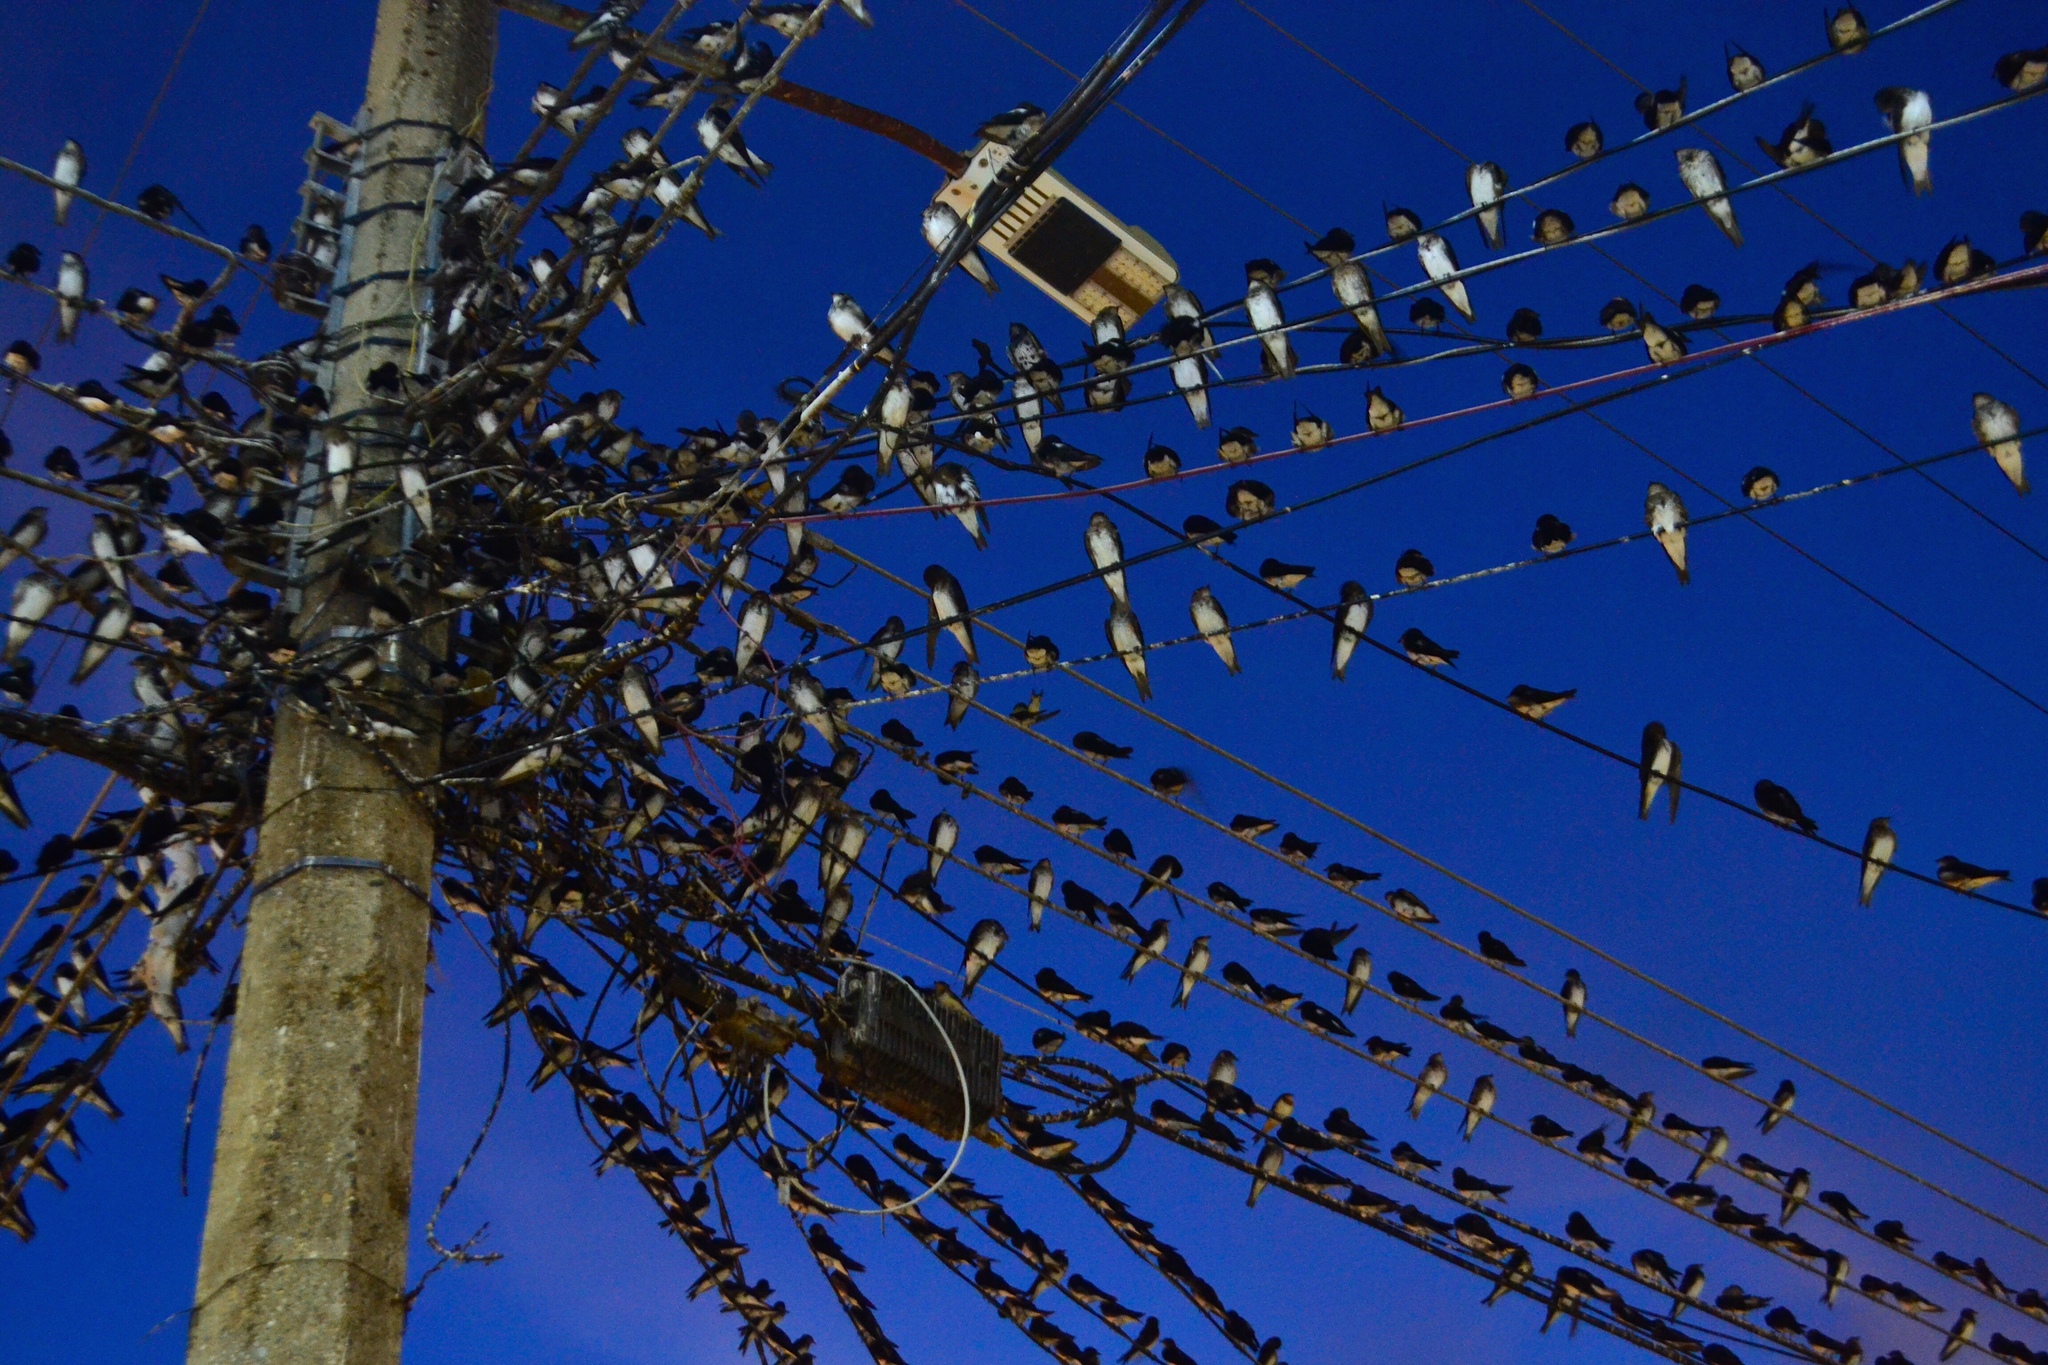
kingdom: Animalia
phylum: Chordata
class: Aves
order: Passeriformes
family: Hirundinidae
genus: Progne
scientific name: Progne chalybea
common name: Grey-breasted martin
